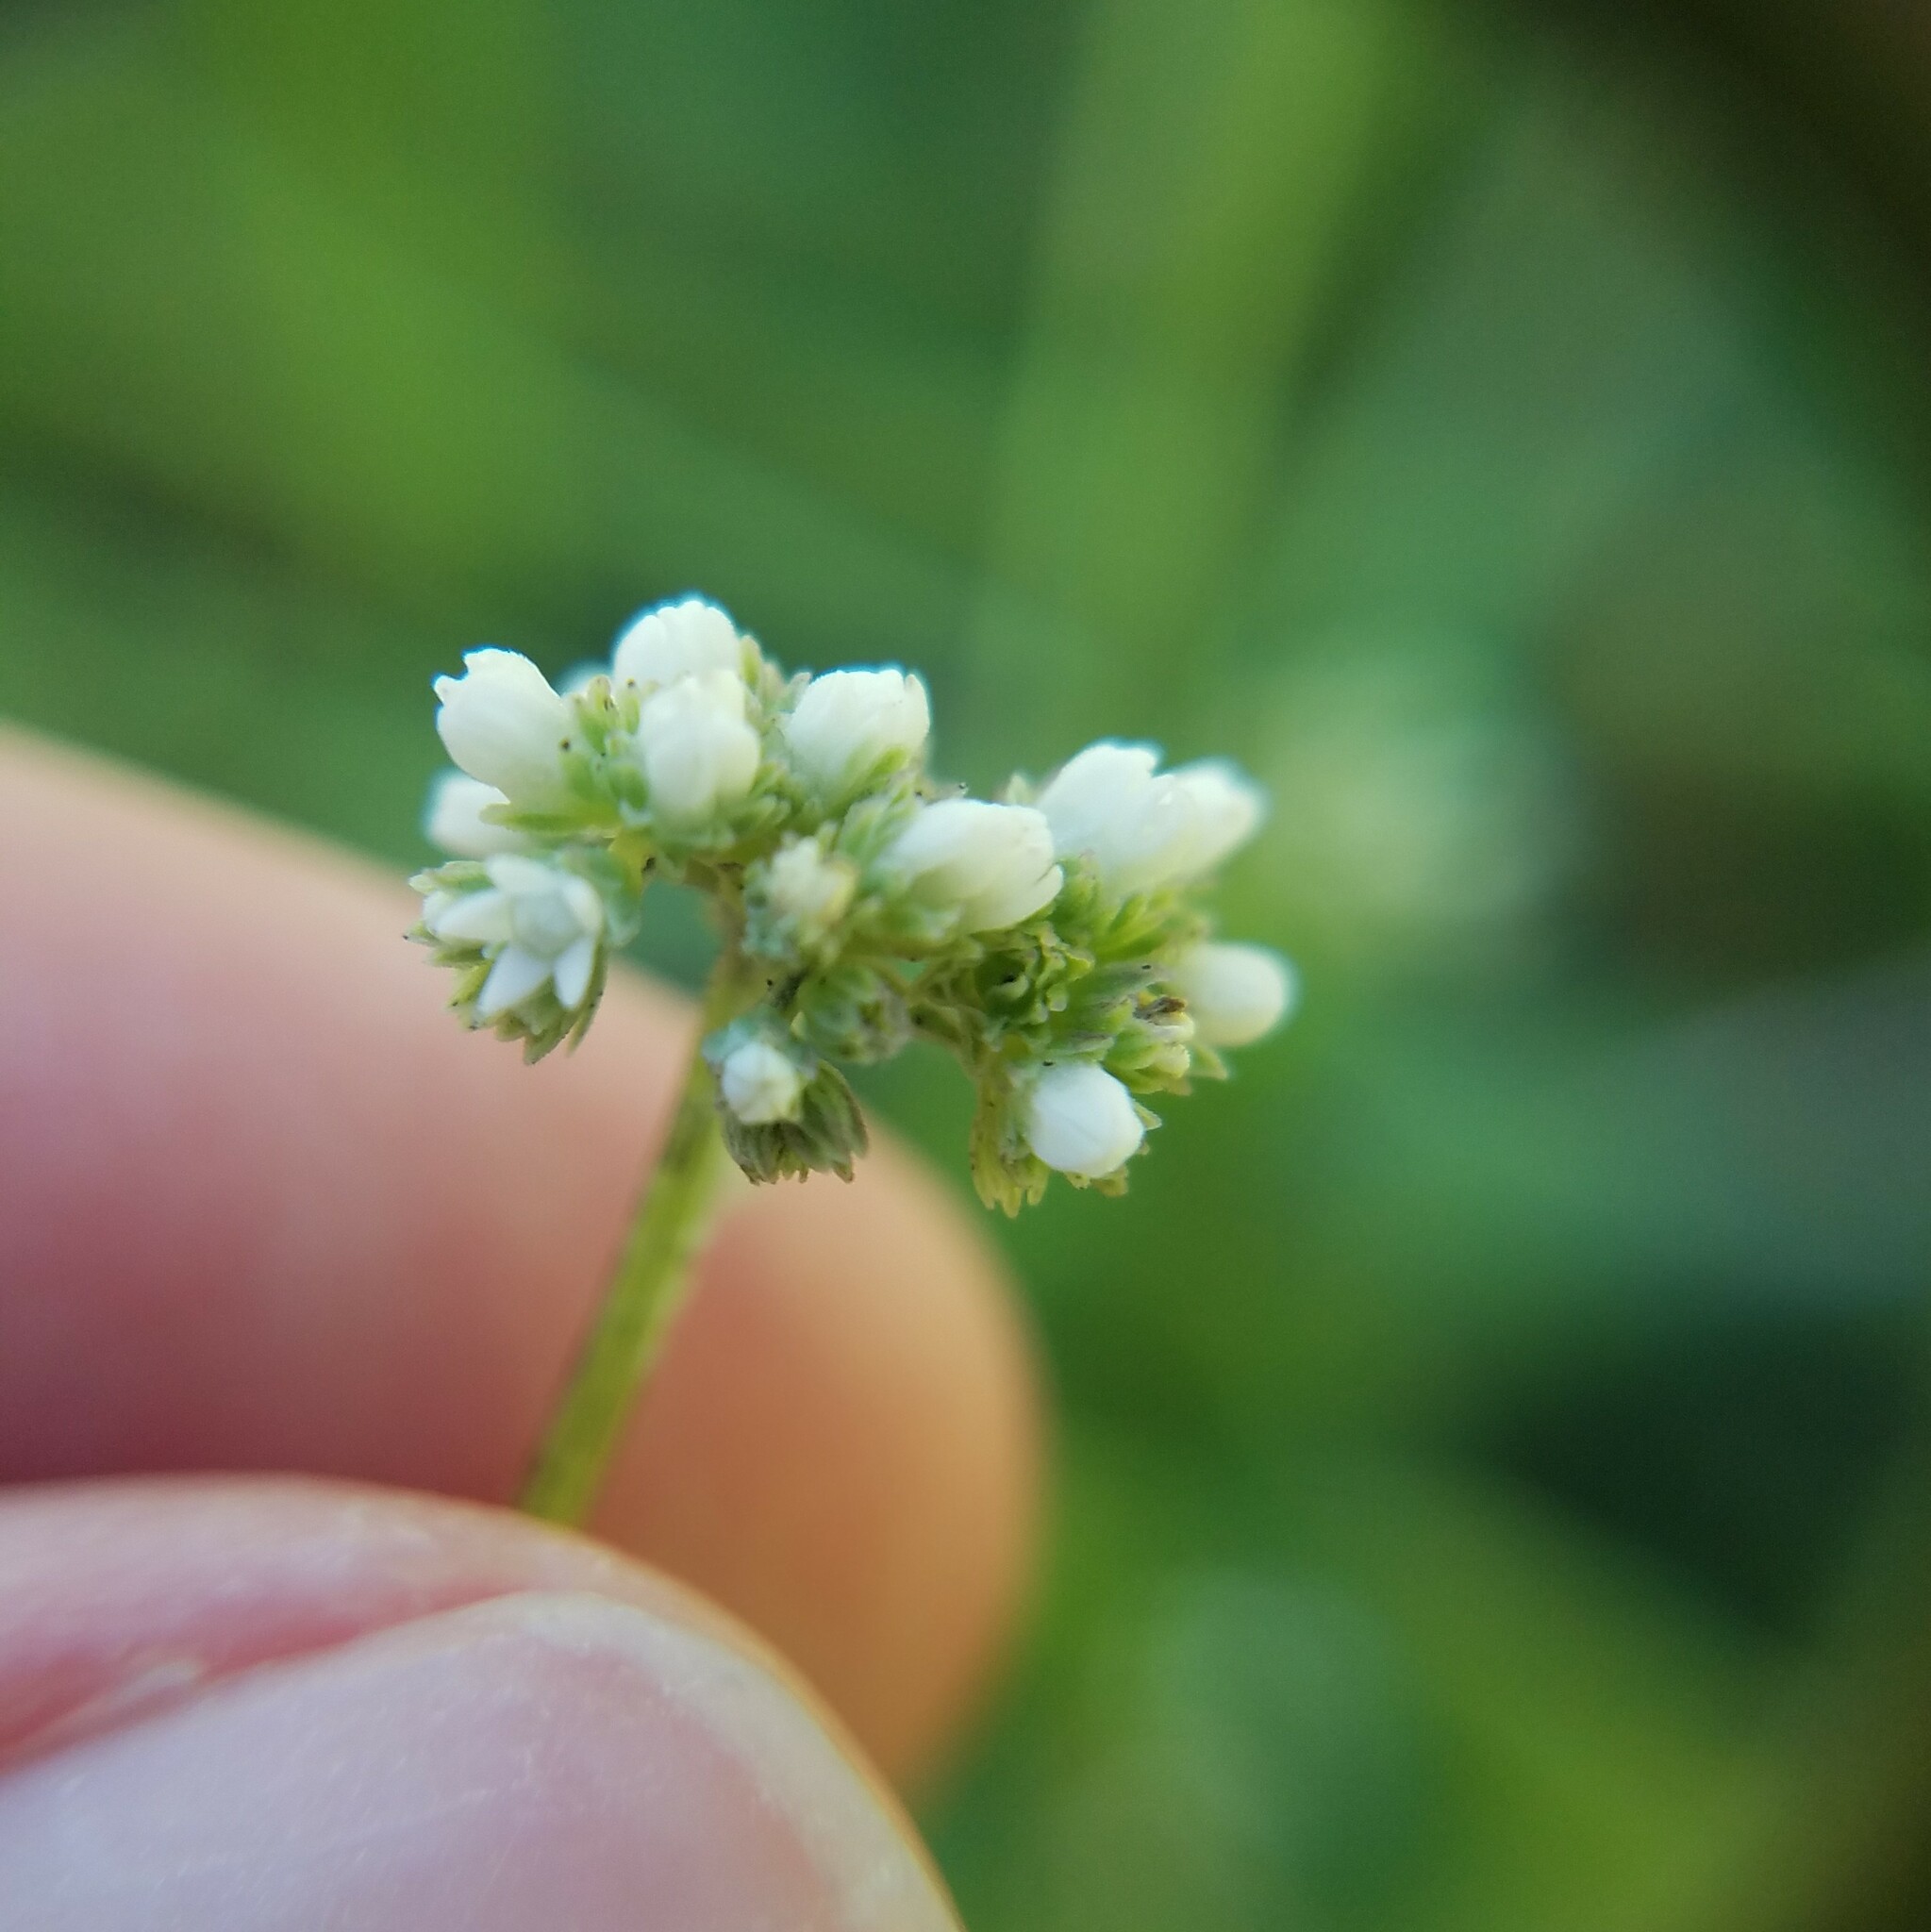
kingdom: Plantae
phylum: Tracheophyta
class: Magnoliopsida
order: Gentianales
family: Loganiaceae
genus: Mitreola
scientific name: Mitreola sessilifolia
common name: Swamp hornpod
